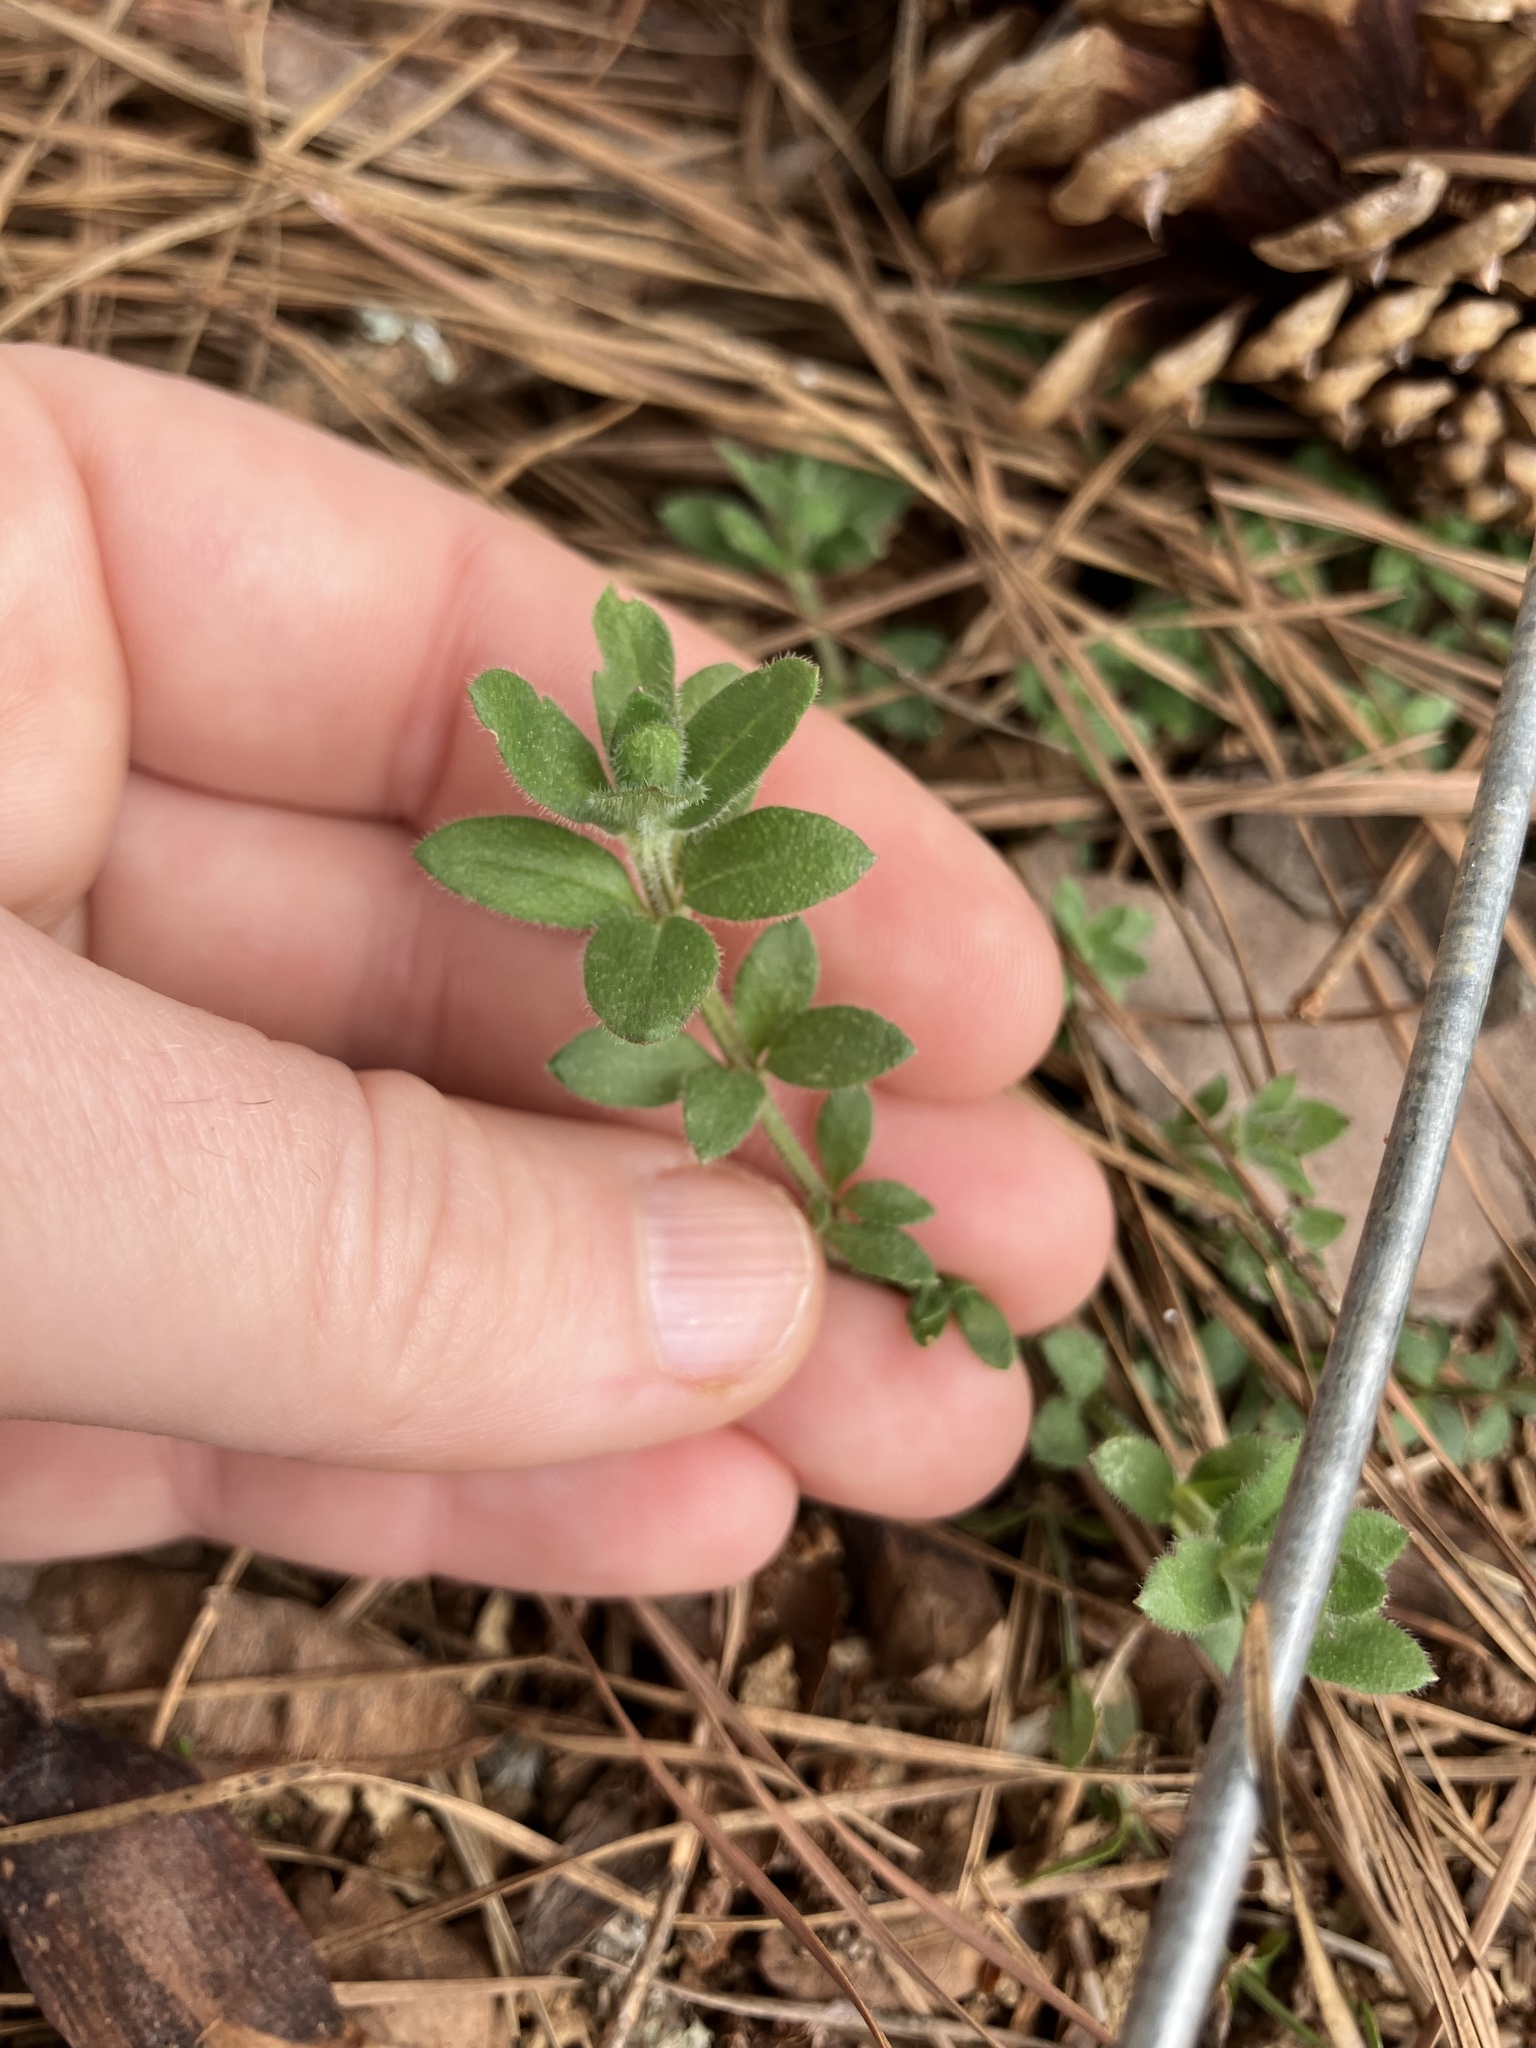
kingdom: Plantae
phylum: Tracheophyta
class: Magnoliopsida
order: Gentianales
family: Rubiaceae
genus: Galium
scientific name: Galium pilosum
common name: Hairy bedstraw
